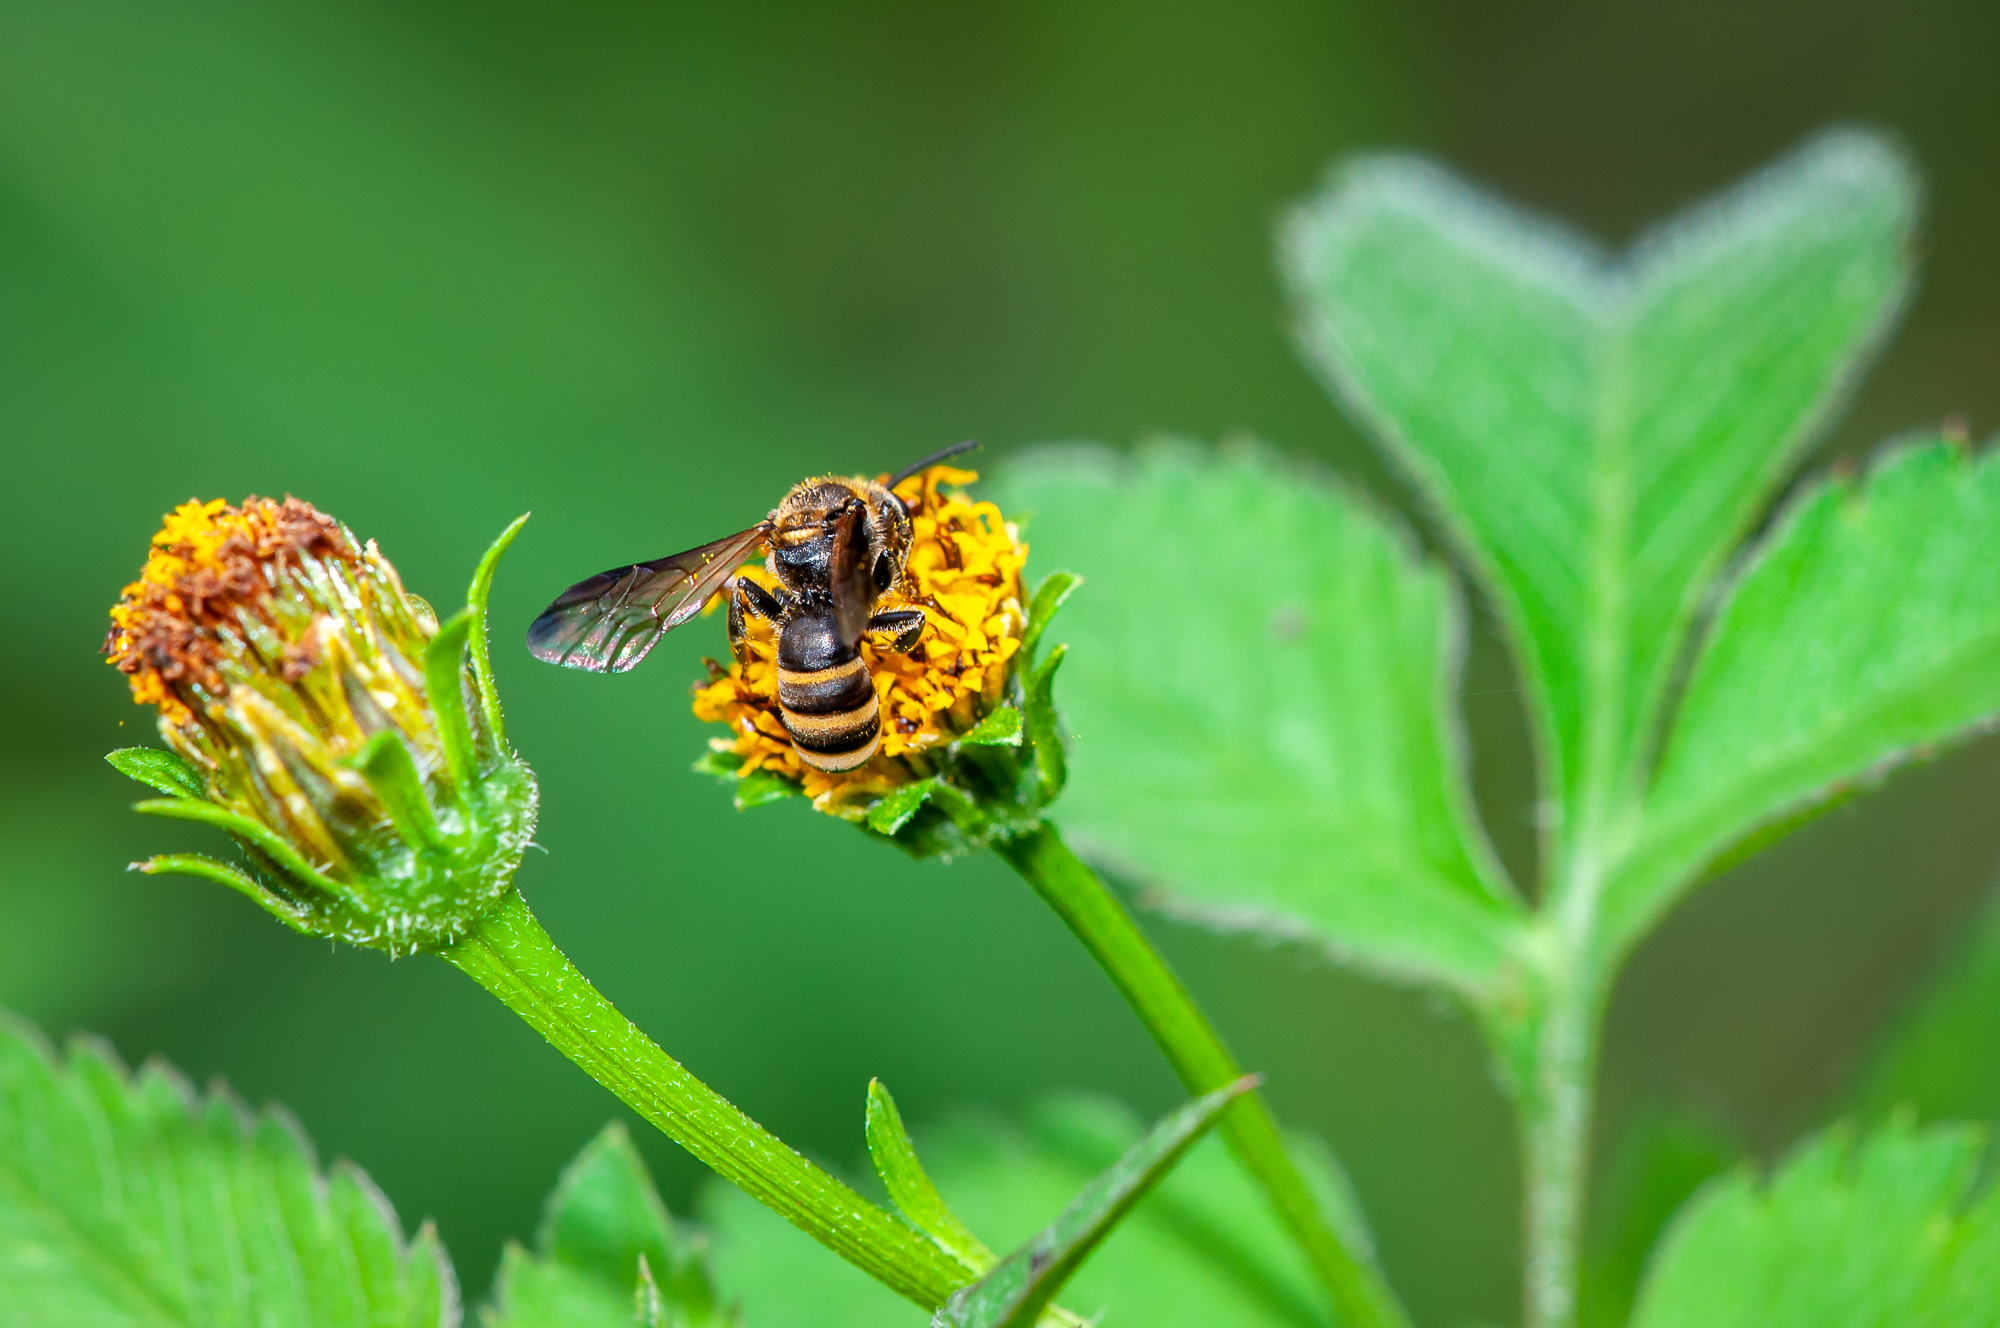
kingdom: Animalia
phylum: Arthropoda
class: Insecta
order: Hymenoptera
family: Halictidae
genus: Lasioglossum
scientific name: Lasioglossum
